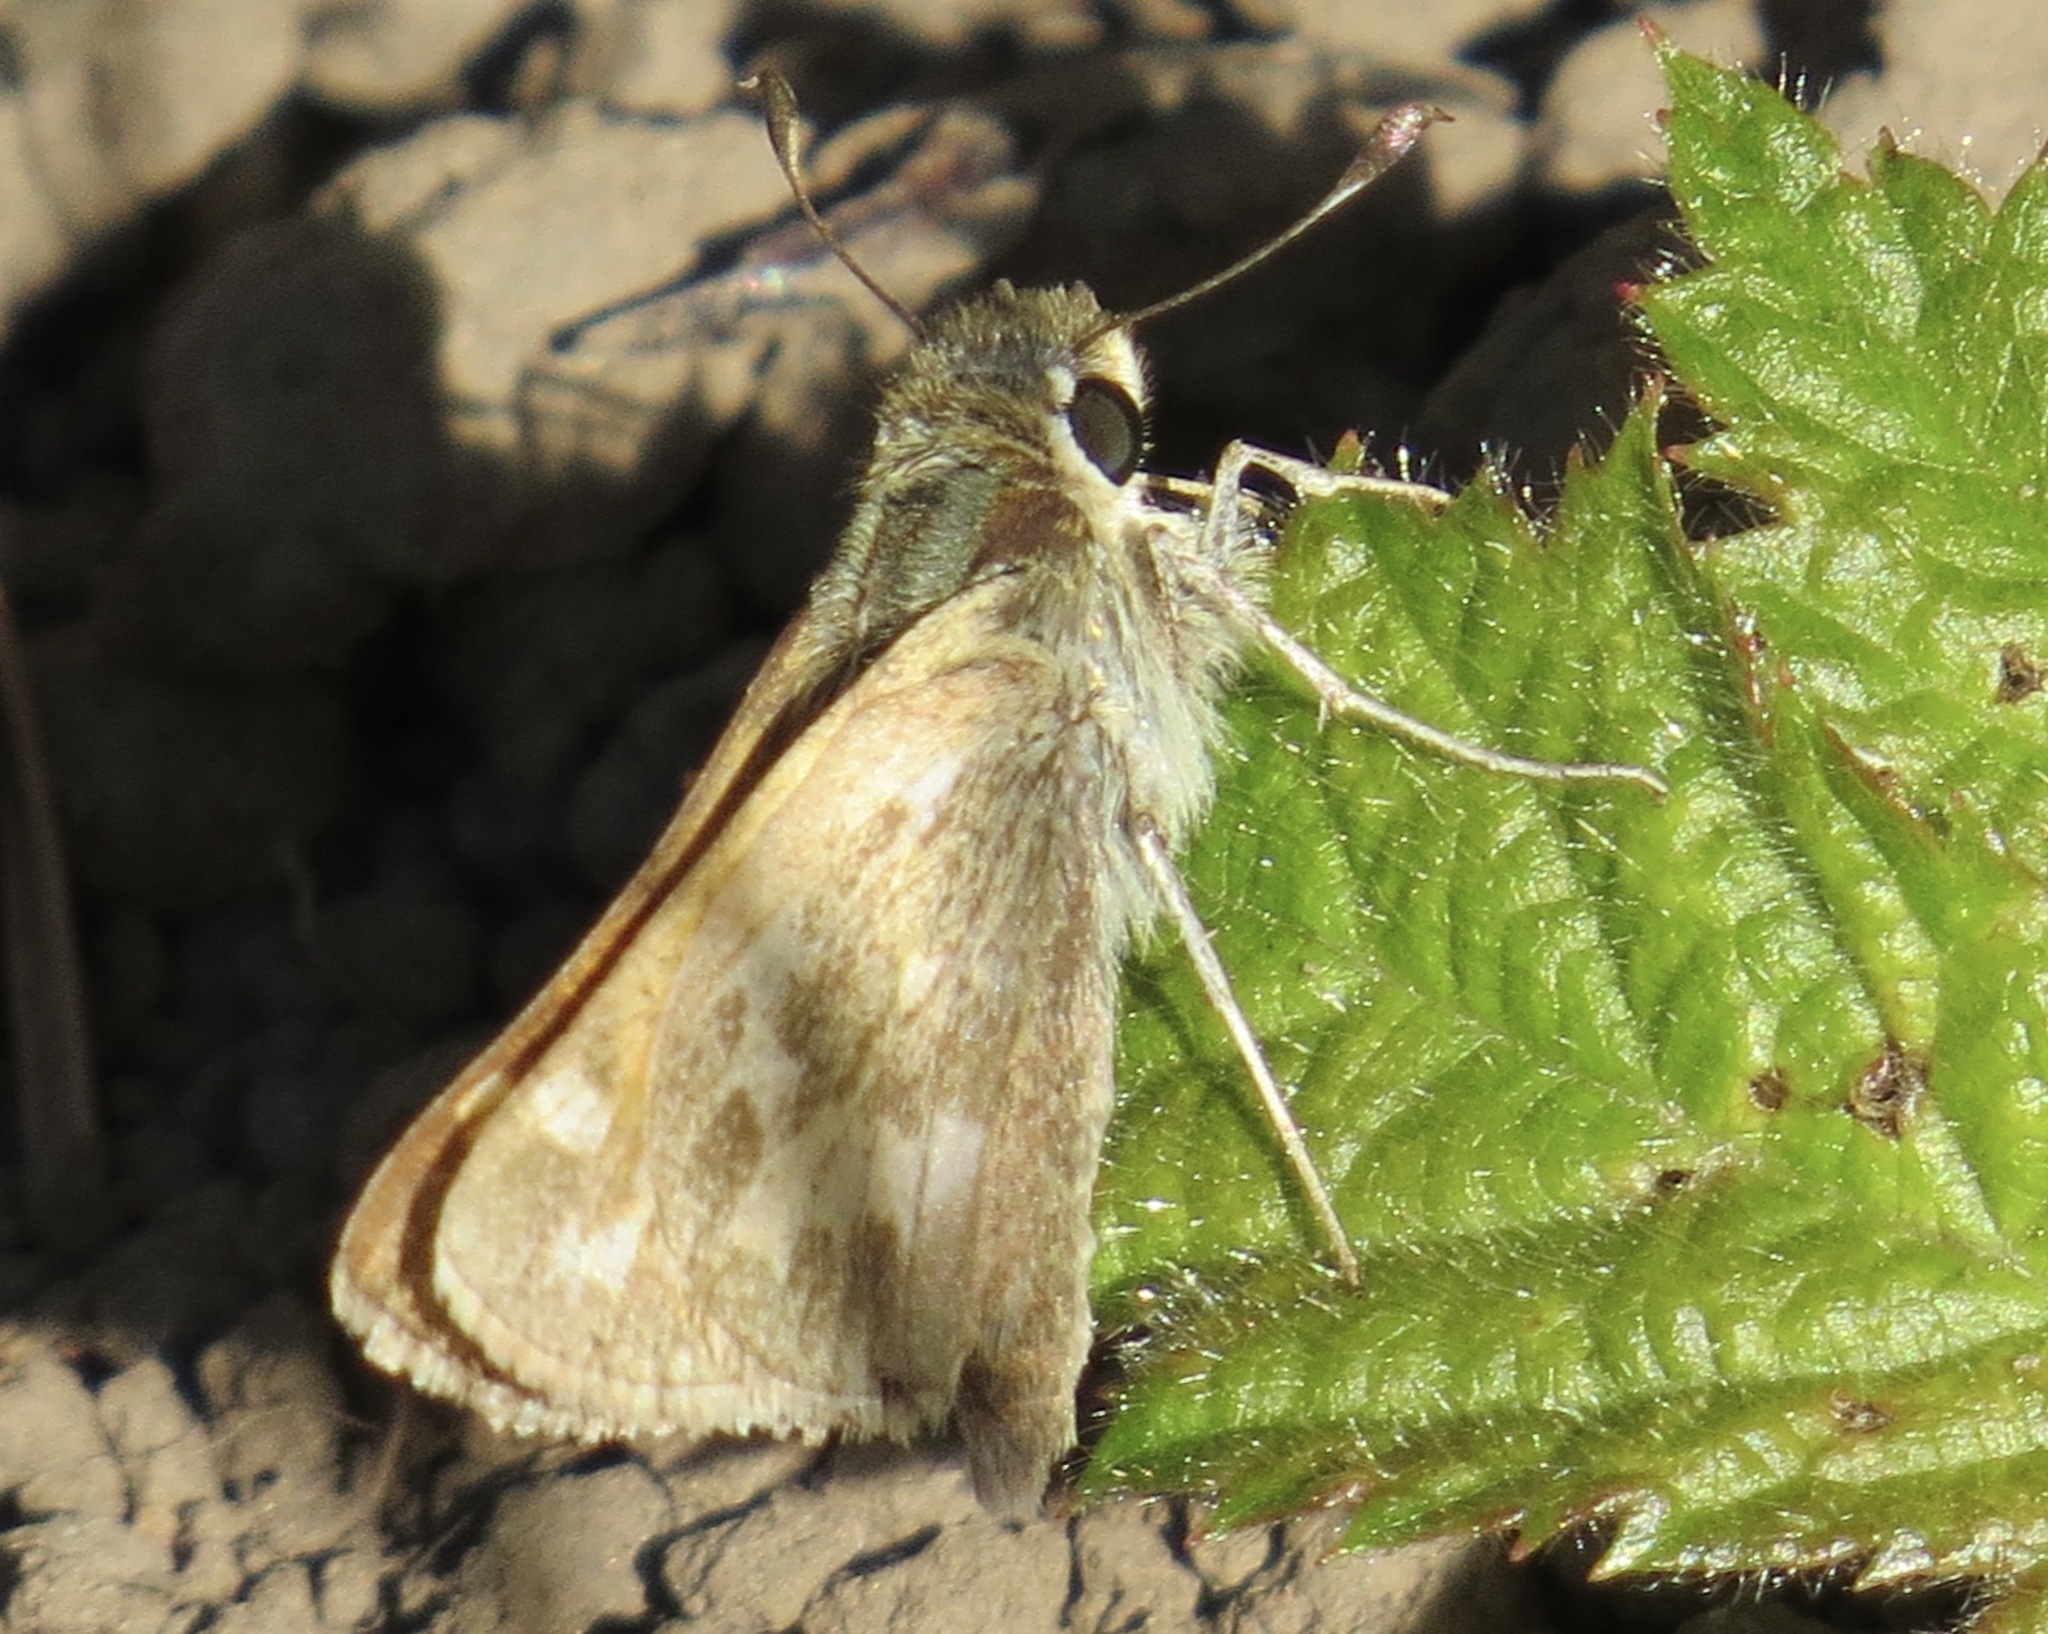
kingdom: Animalia
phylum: Arthropoda
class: Insecta
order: Lepidoptera
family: Hesperiidae
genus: Atalopedes
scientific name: Atalopedes campestris
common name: Sachem
